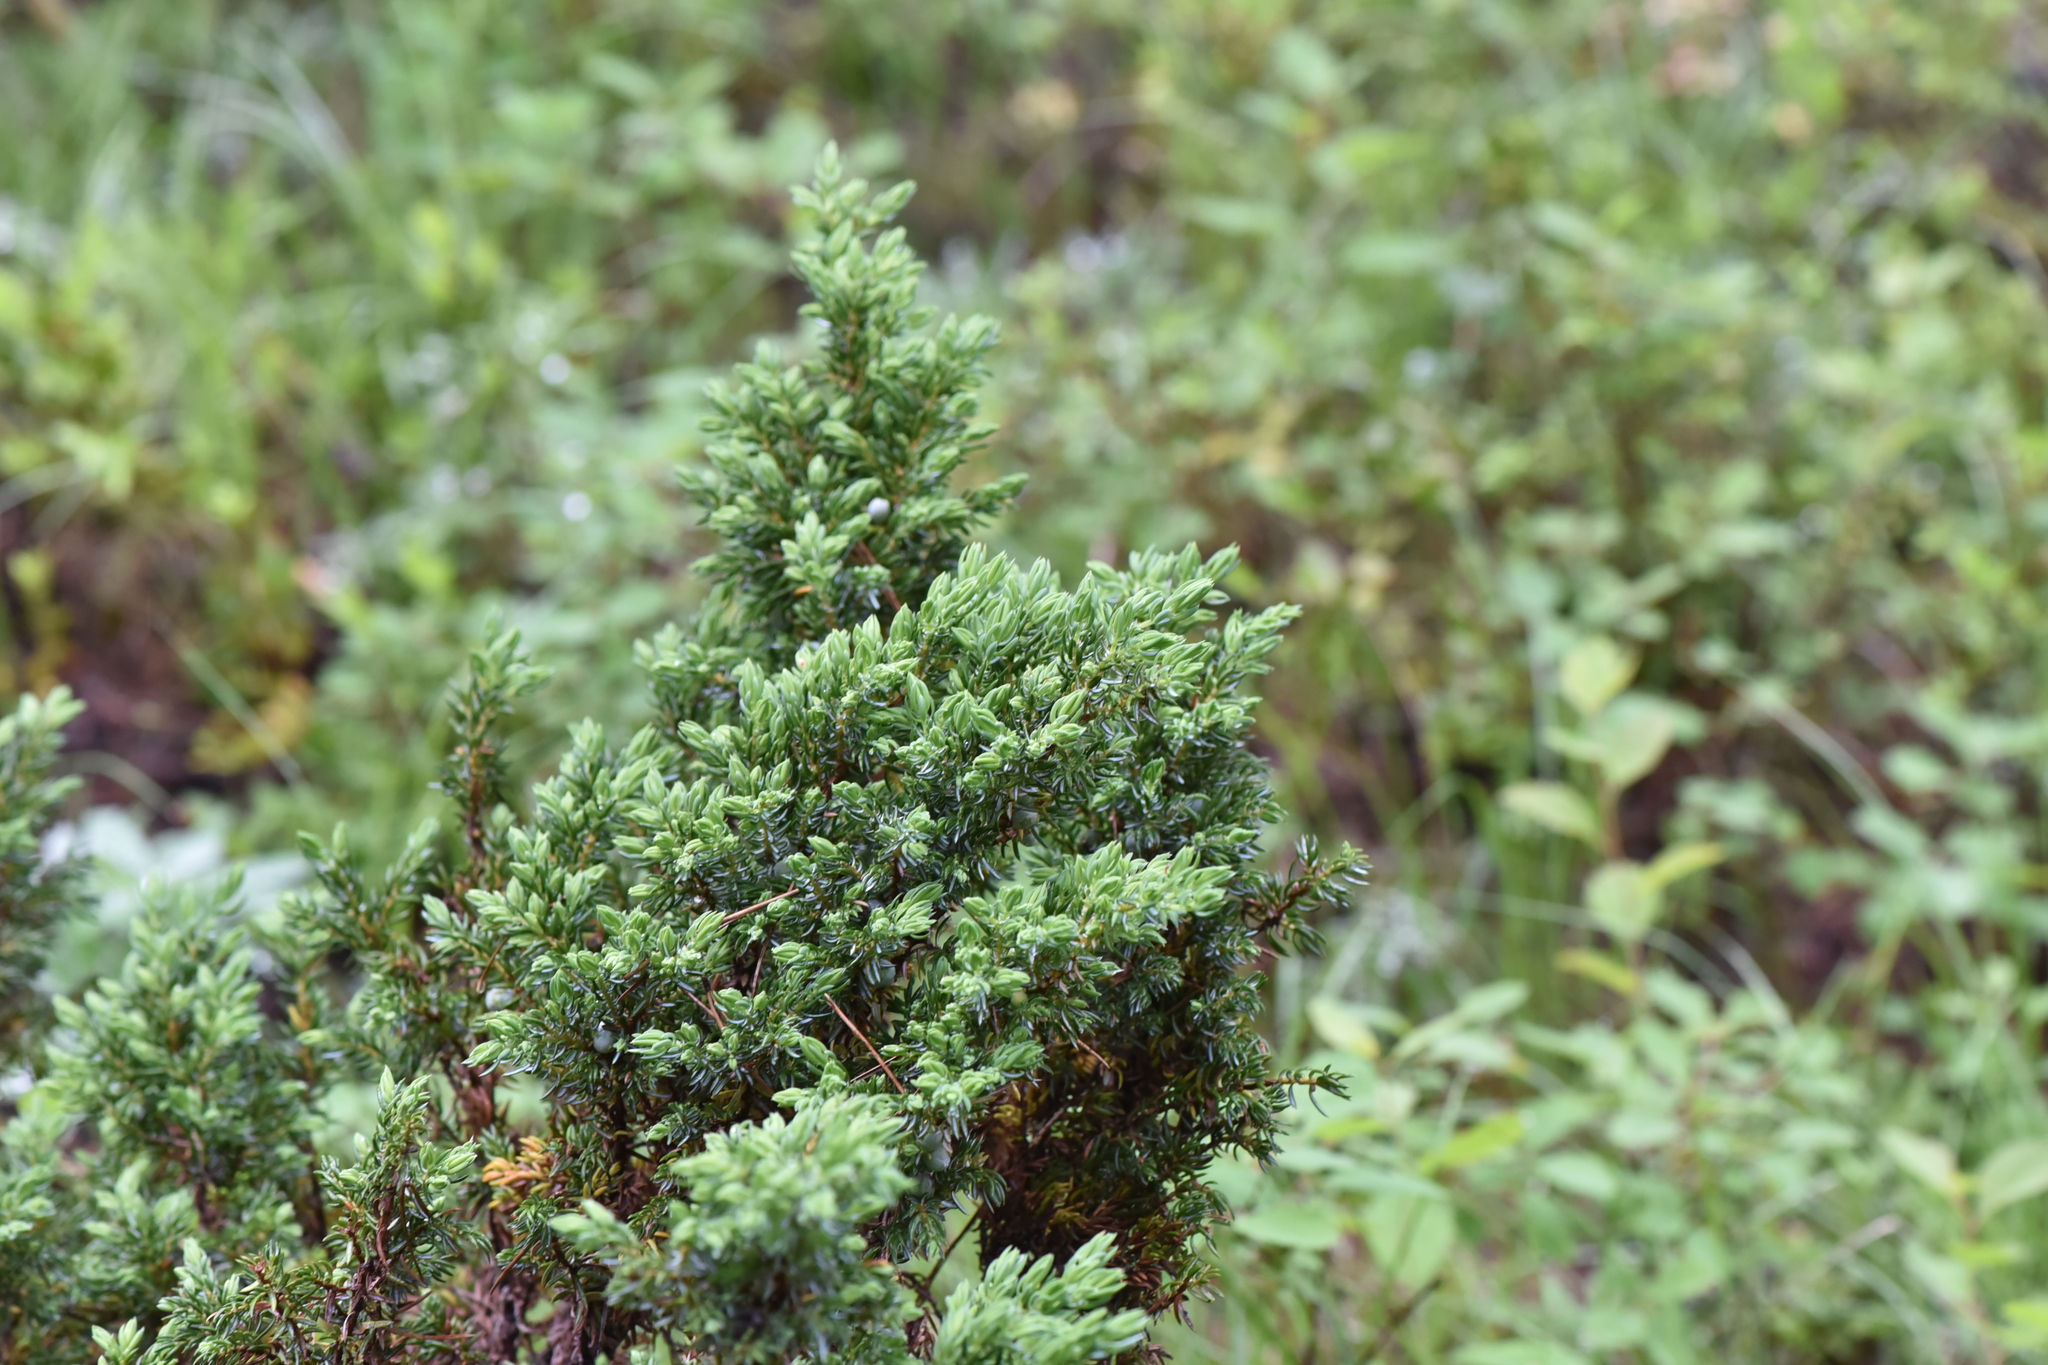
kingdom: Plantae
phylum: Tracheophyta
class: Pinopsida
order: Pinales
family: Cupressaceae
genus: Juniperus
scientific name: Juniperus communis
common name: Common juniper
